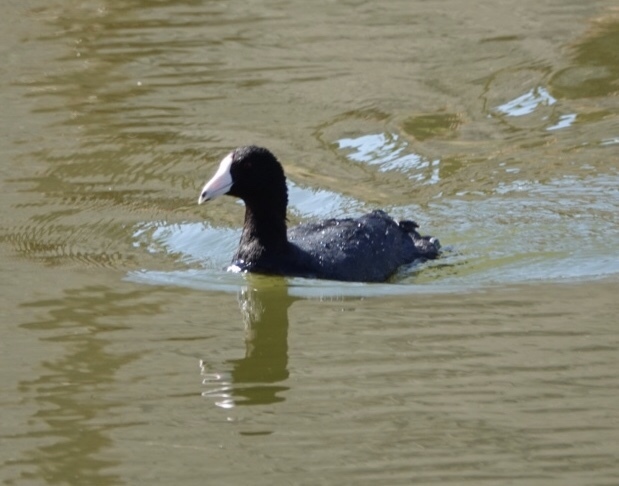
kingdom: Animalia
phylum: Chordata
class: Aves
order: Gruiformes
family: Rallidae
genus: Fulica
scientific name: Fulica americana
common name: American coot
